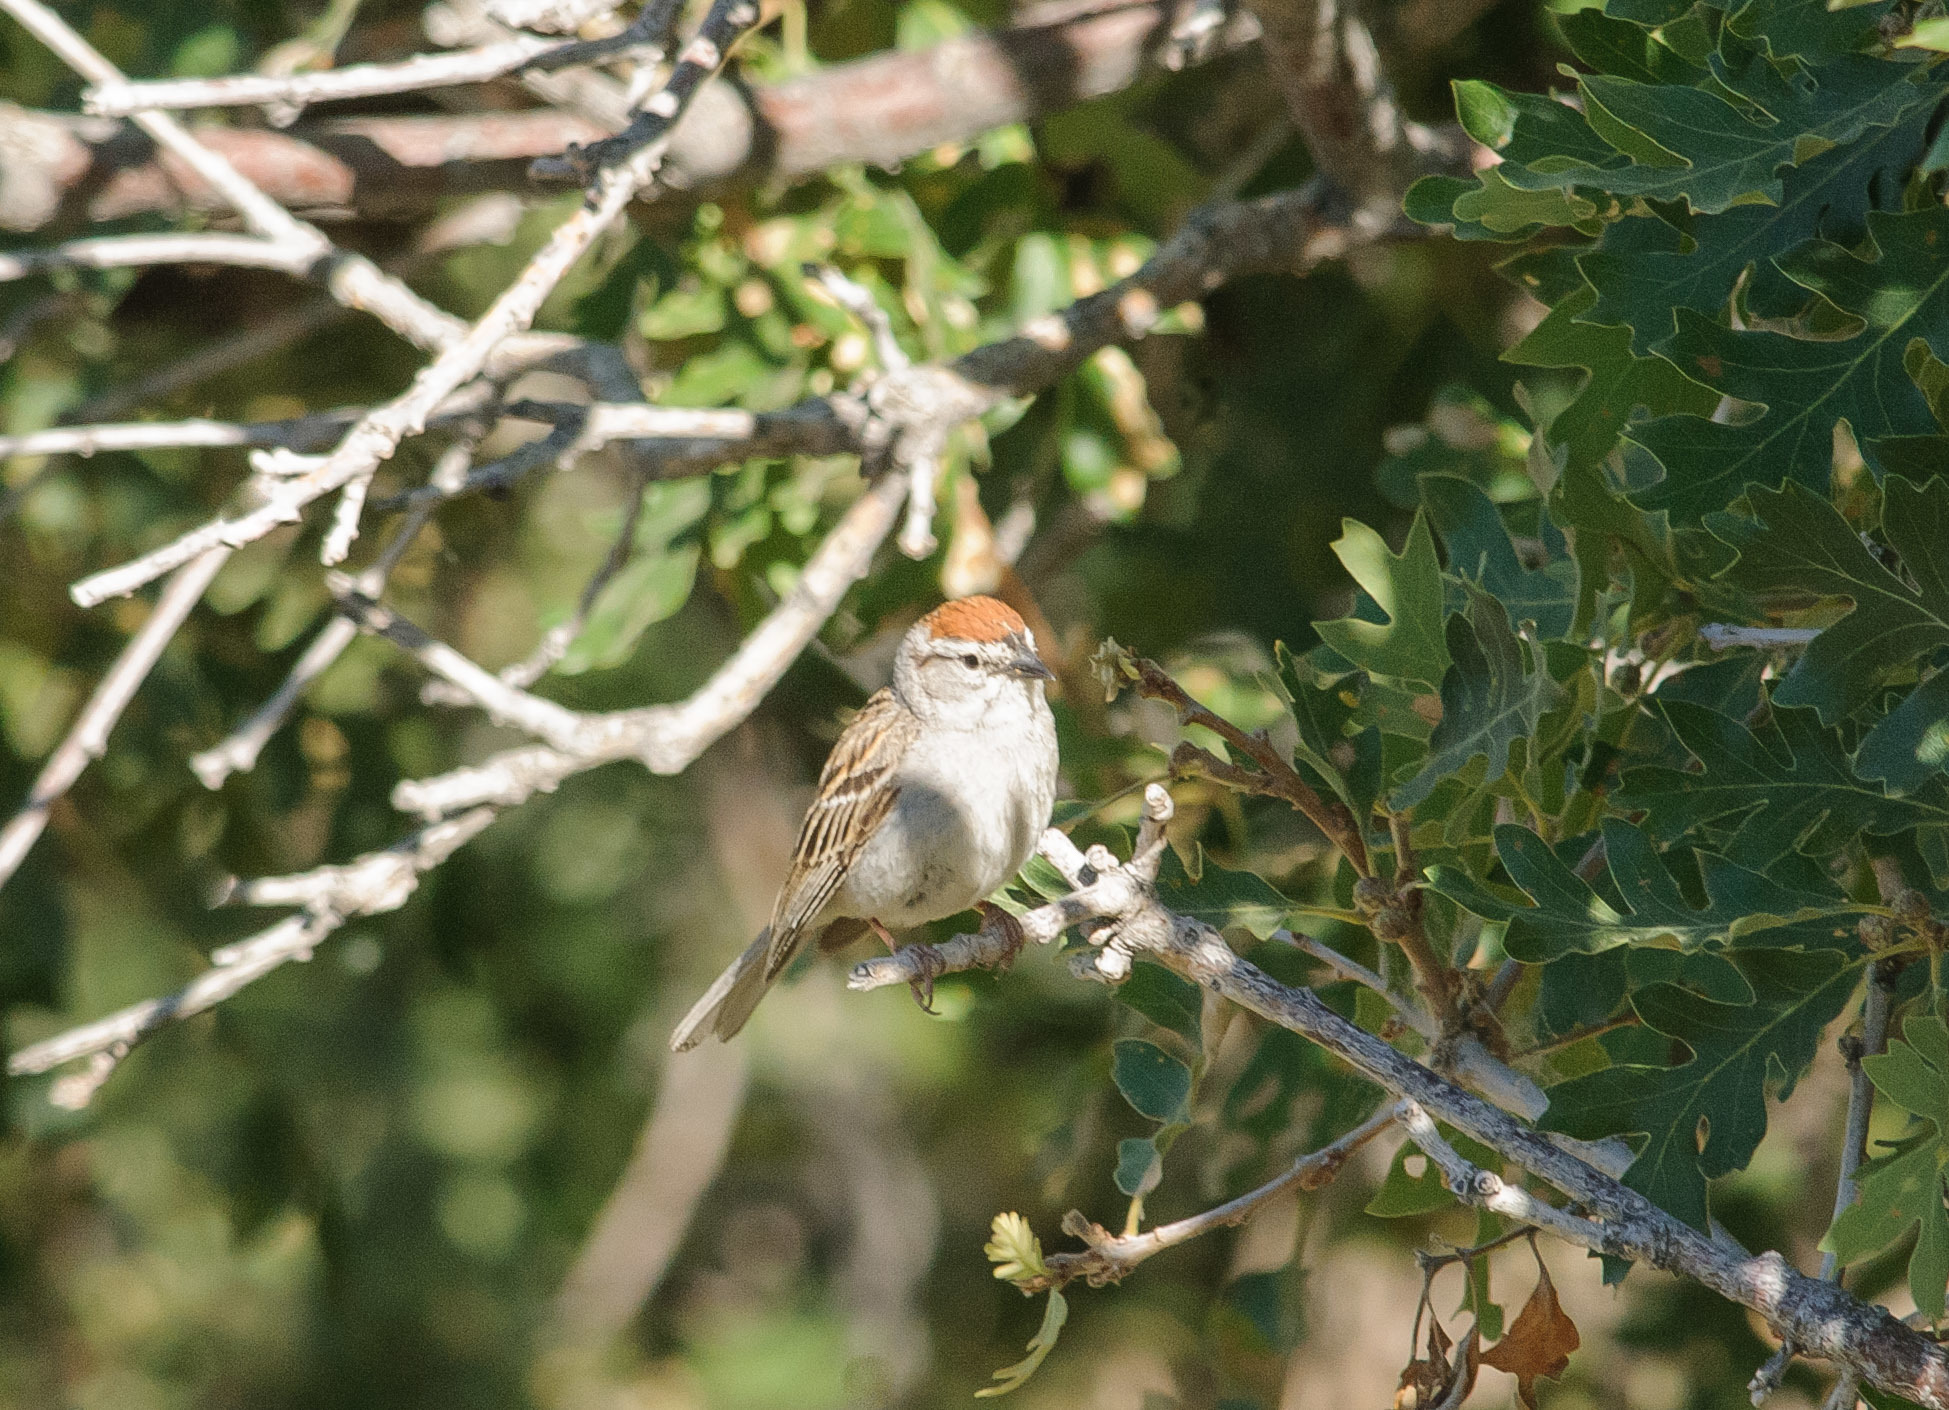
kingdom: Animalia
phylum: Chordata
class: Aves
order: Passeriformes
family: Passerellidae
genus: Spizella
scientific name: Spizella passerina
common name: Chipping sparrow
